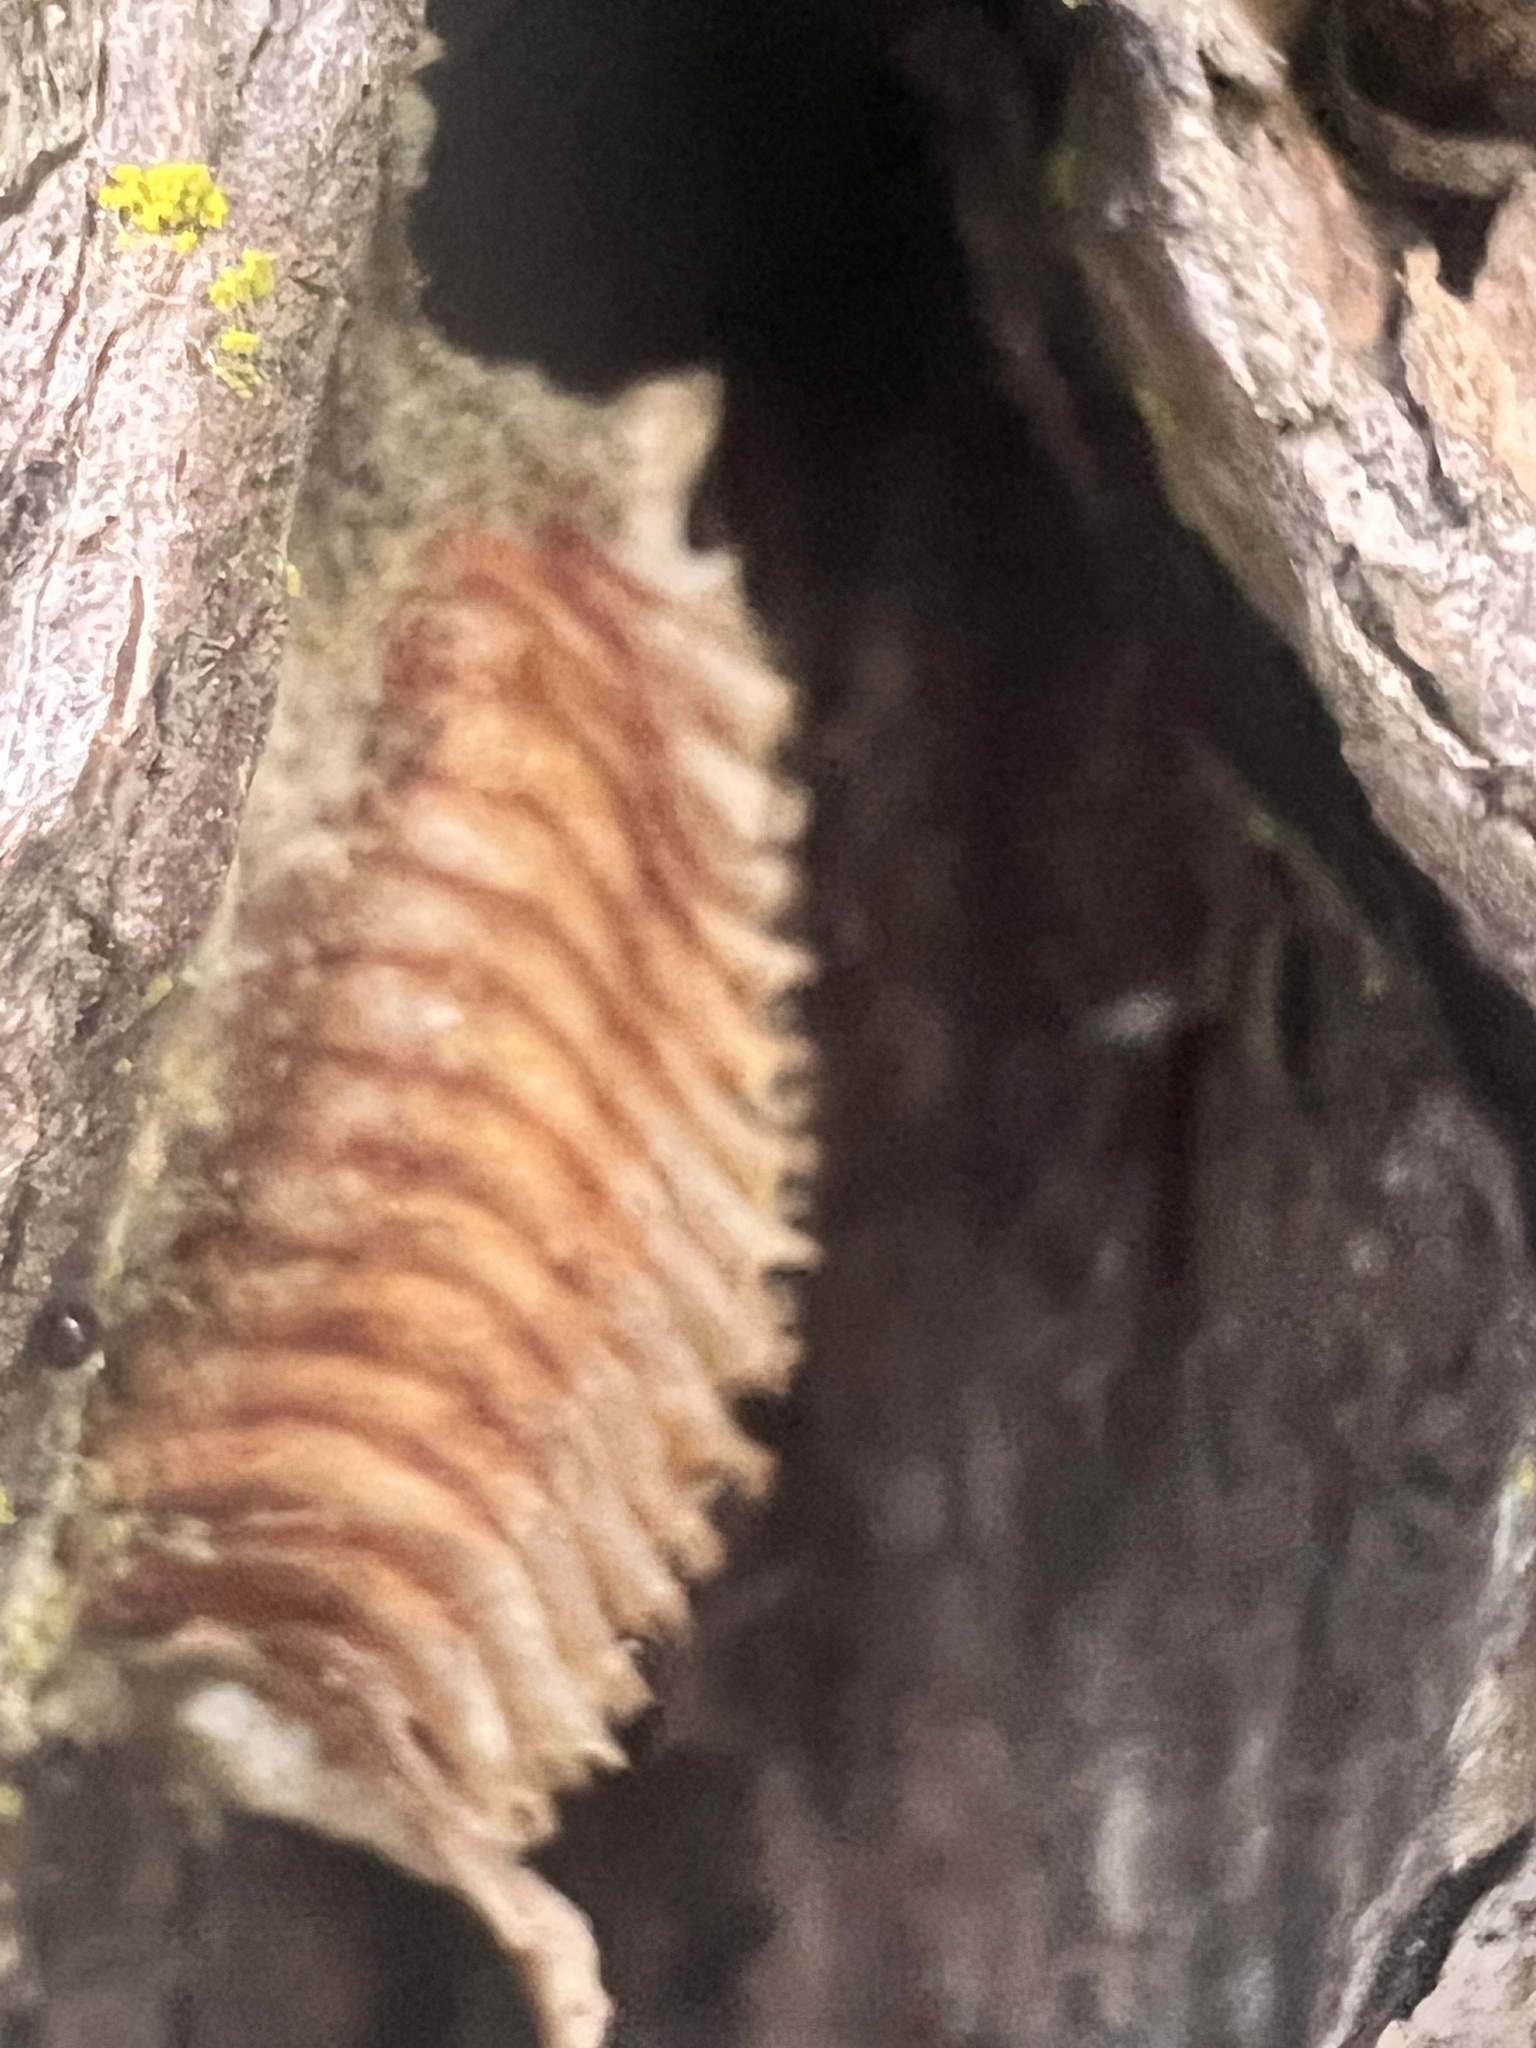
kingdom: Animalia
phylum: Arthropoda
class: Insecta
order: Mantodea
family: Miomantidae
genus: Miomantis
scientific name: Miomantis caffra
